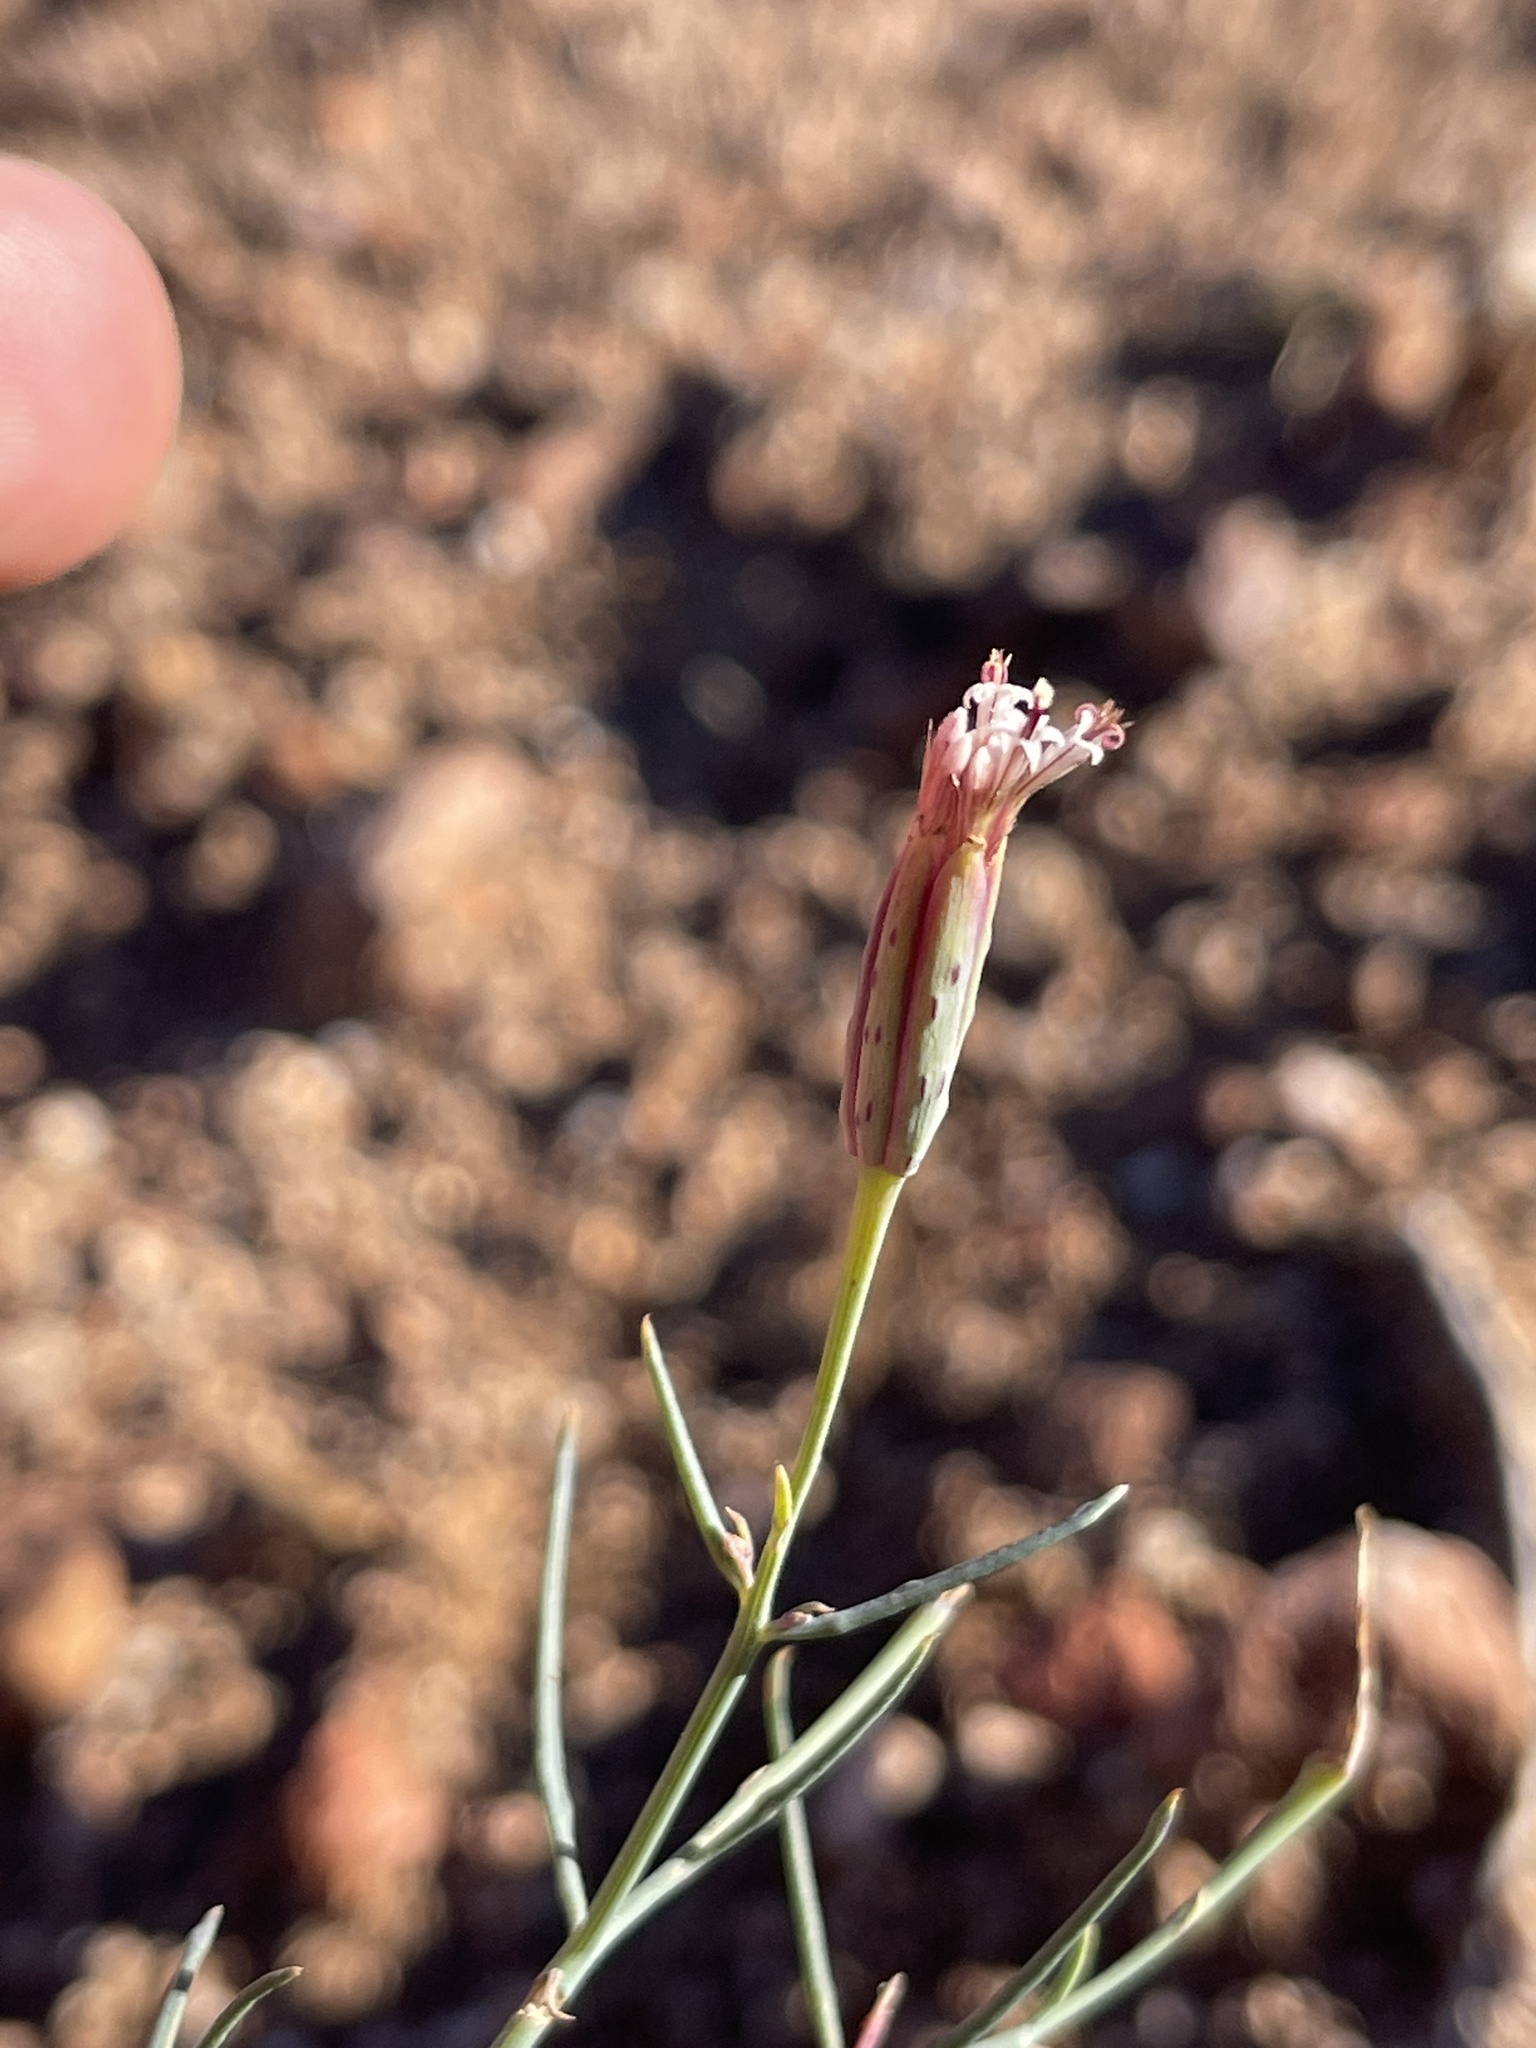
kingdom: Plantae
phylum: Tracheophyta
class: Magnoliopsida
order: Asterales
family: Asteraceae
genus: Porophyllum
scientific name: Porophyllum gracile
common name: Odora
